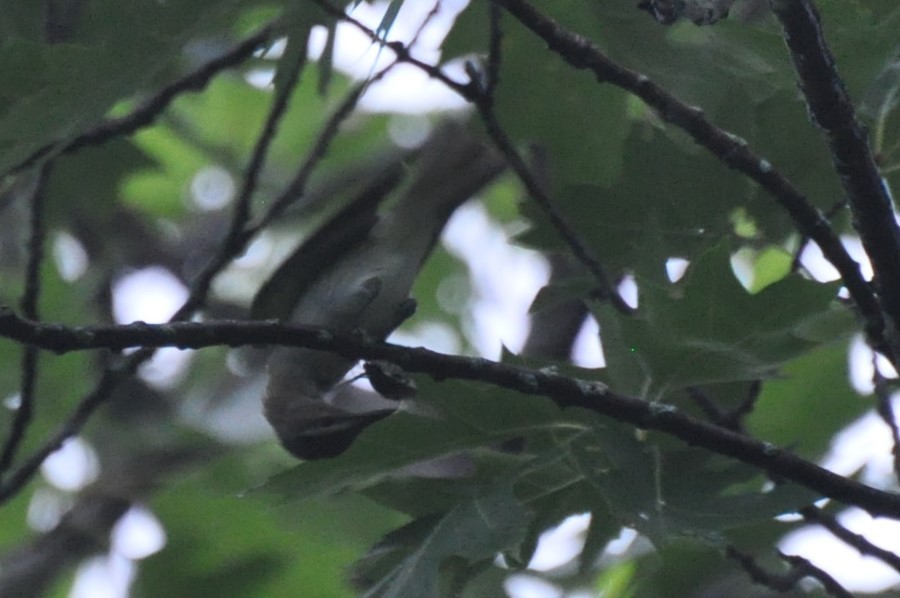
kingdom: Animalia
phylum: Chordata
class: Aves
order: Passeriformes
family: Vireonidae
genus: Vireo
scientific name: Vireo olivaceus
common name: Red-eyed vireo
